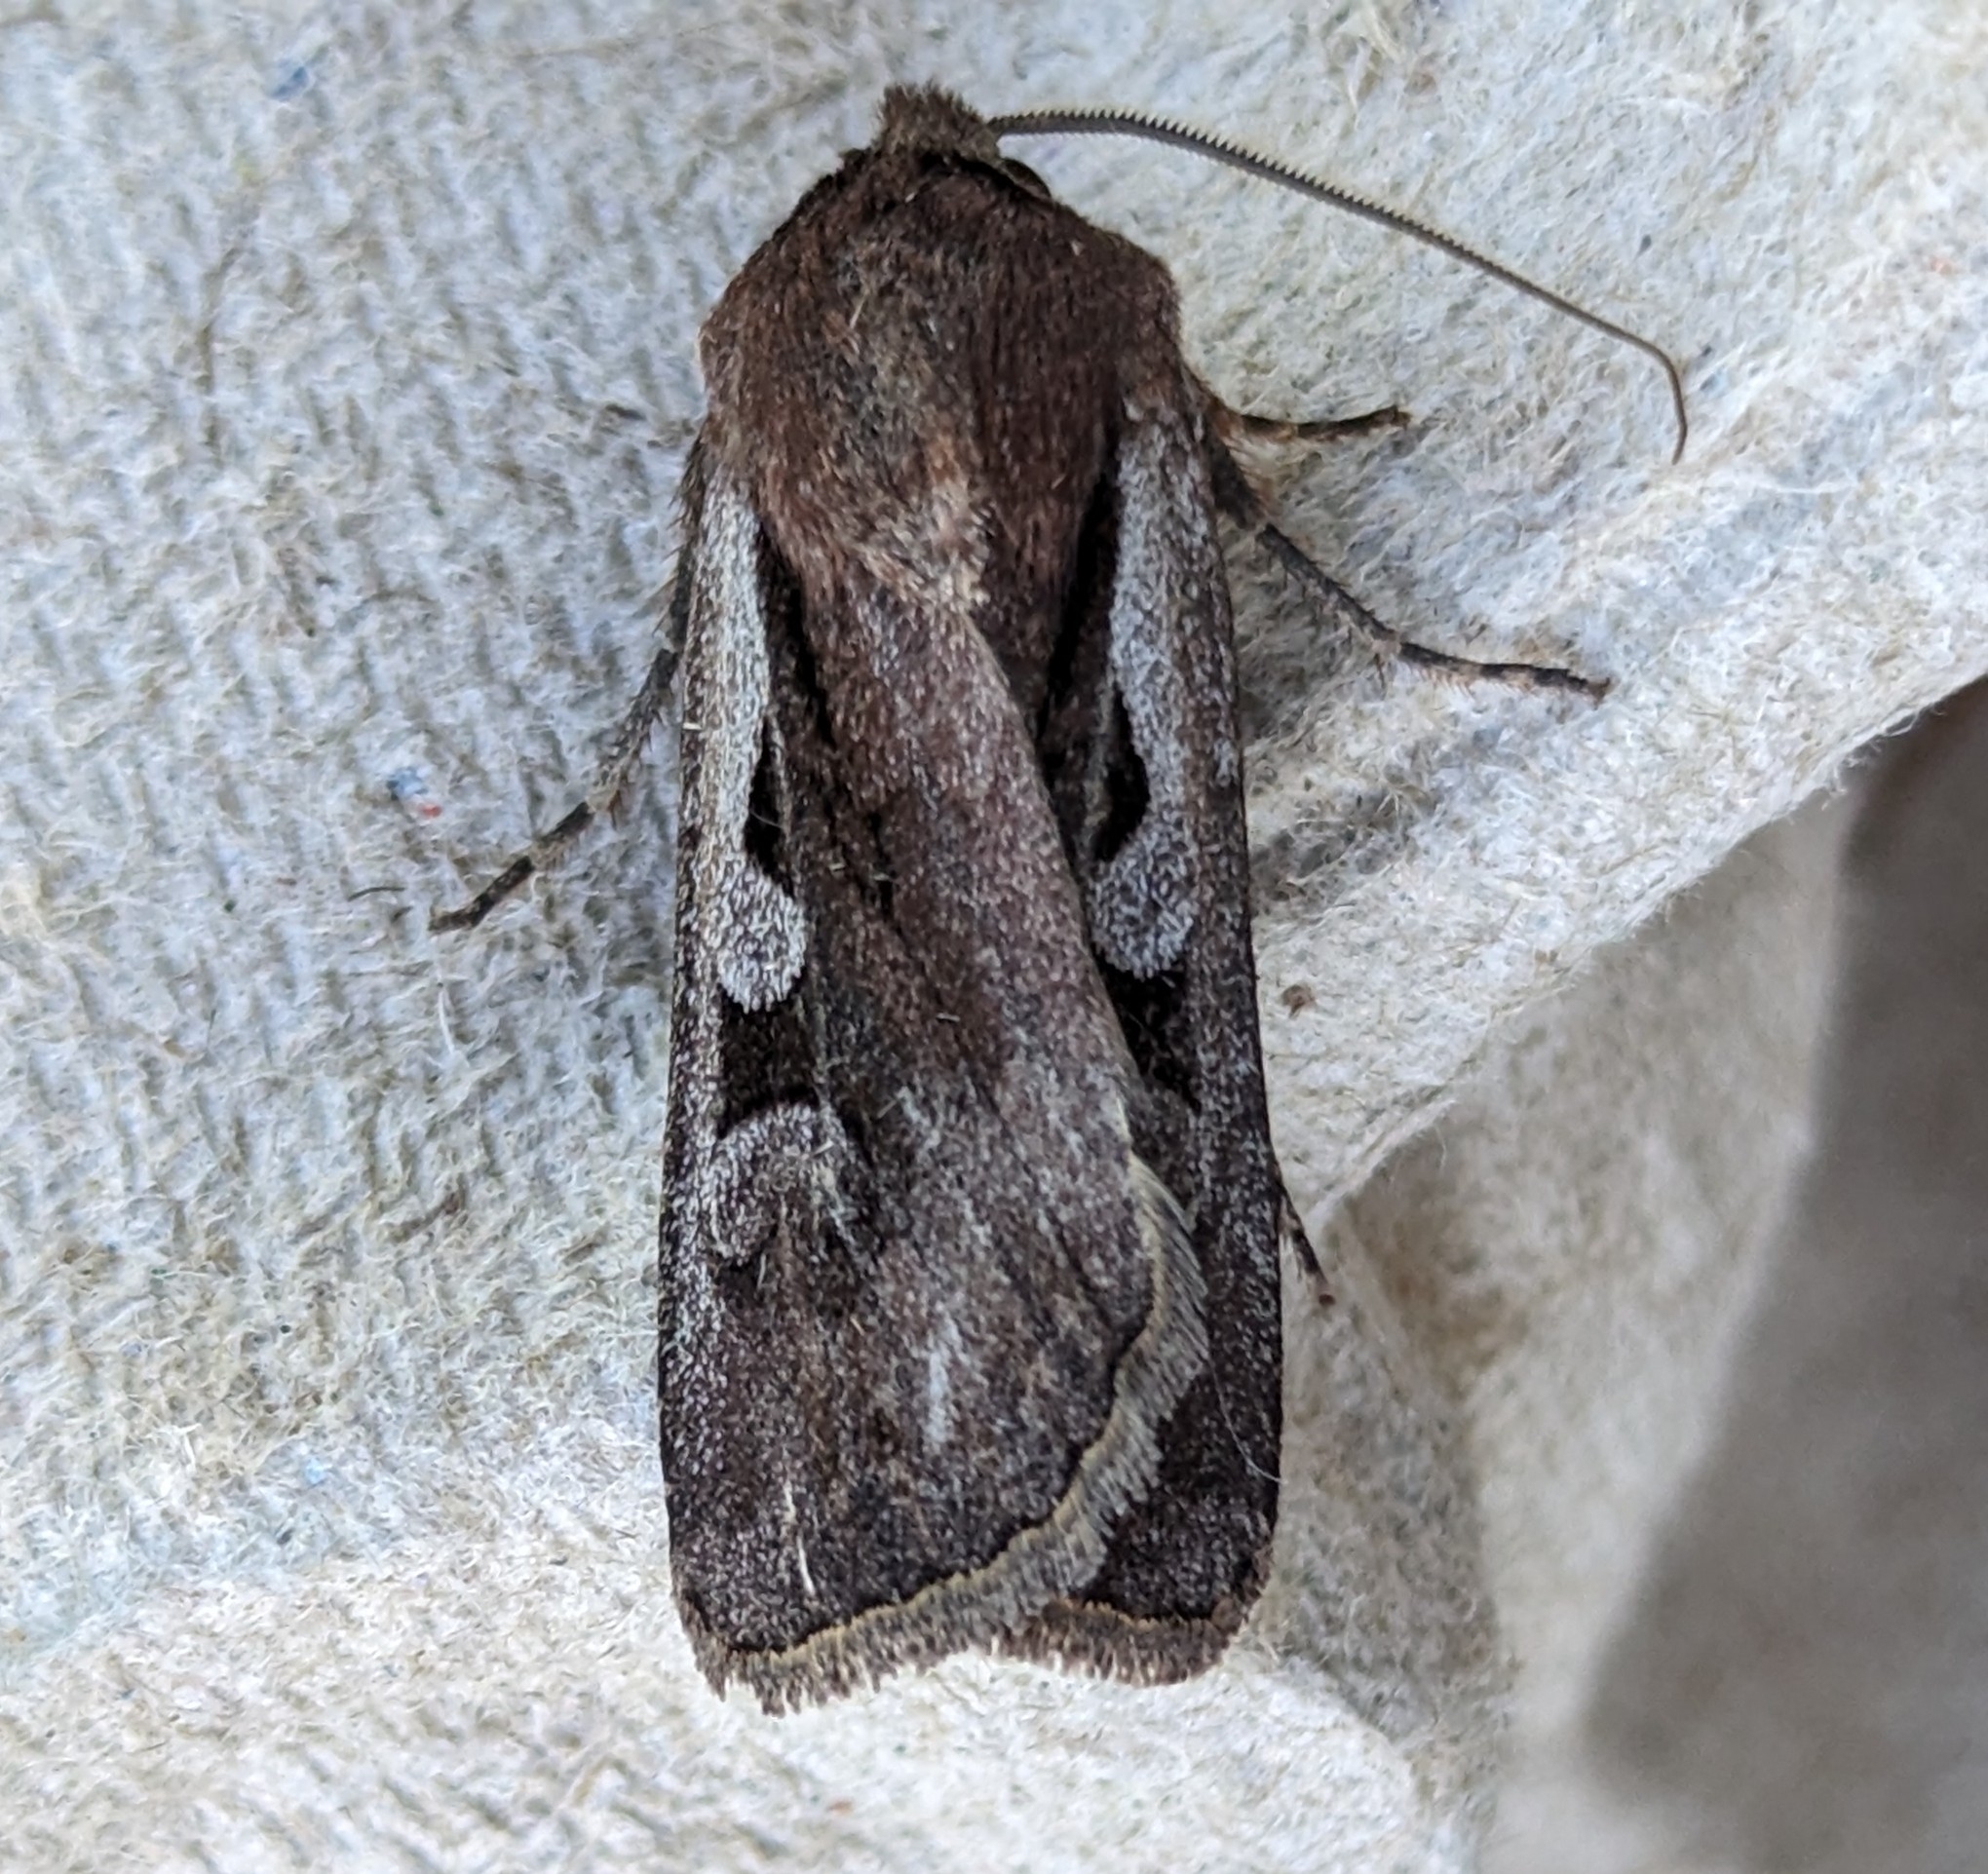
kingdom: Animalia
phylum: Arthropoda
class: Insecta
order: Lepidoptera
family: Noctuidae
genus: Euxoa
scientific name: Euxoa idahoensis
